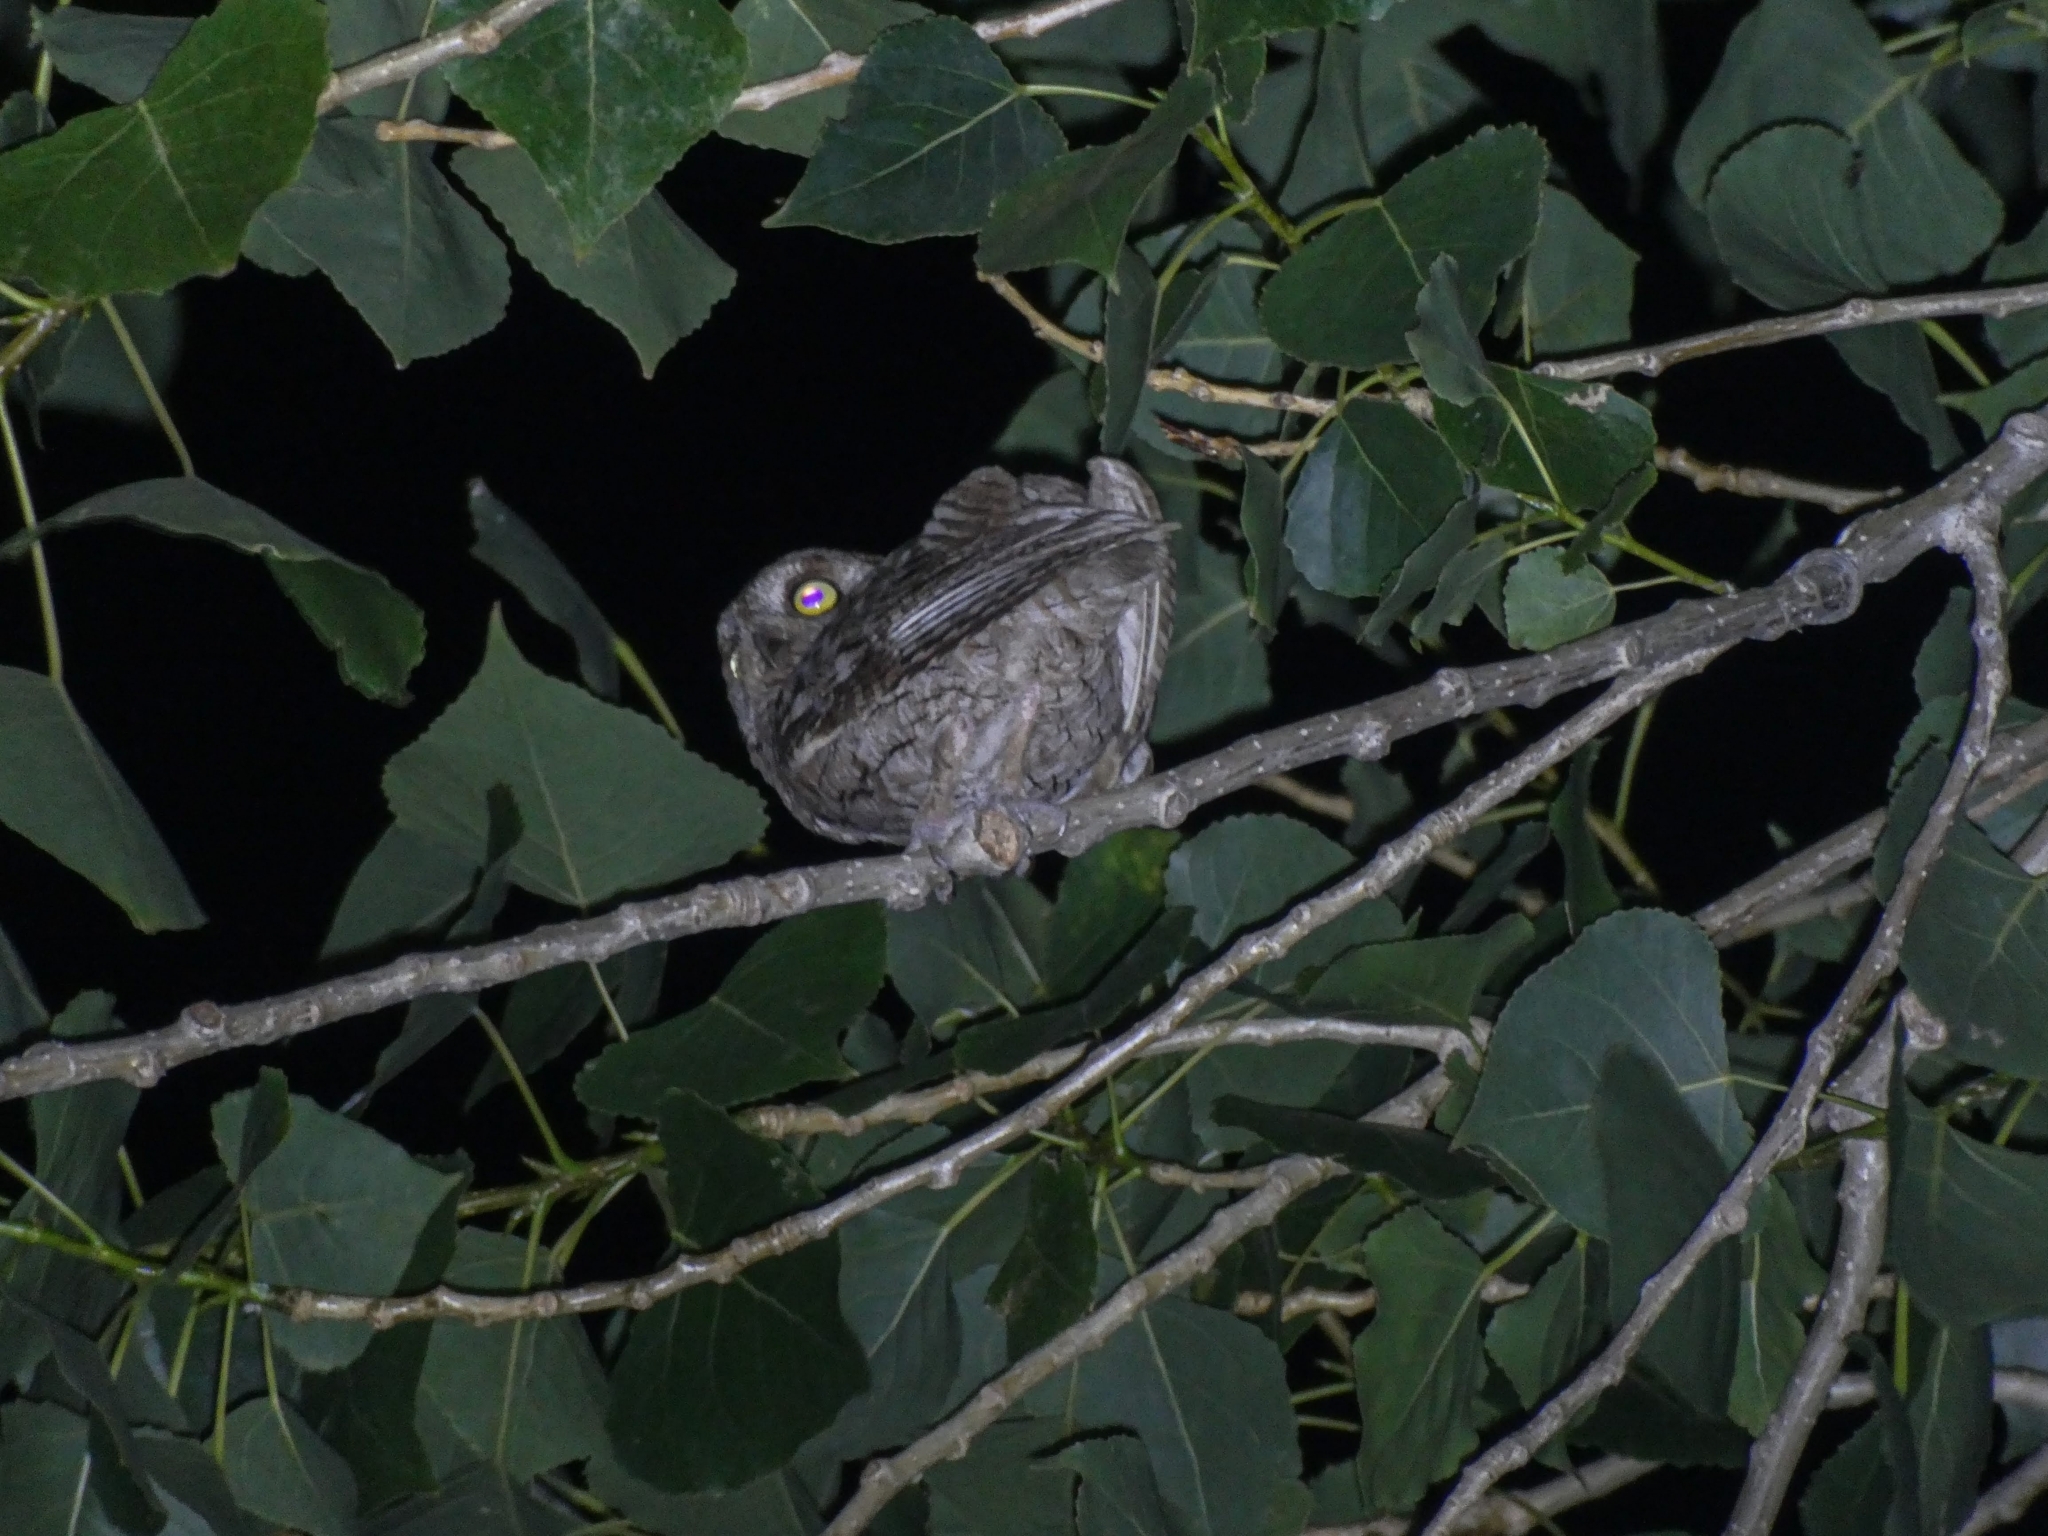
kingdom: Animalia
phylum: Chordata
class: Aves
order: Strigiformes
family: Strigidae
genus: Otus
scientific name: Otus scops
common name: Eurasian scops owl
